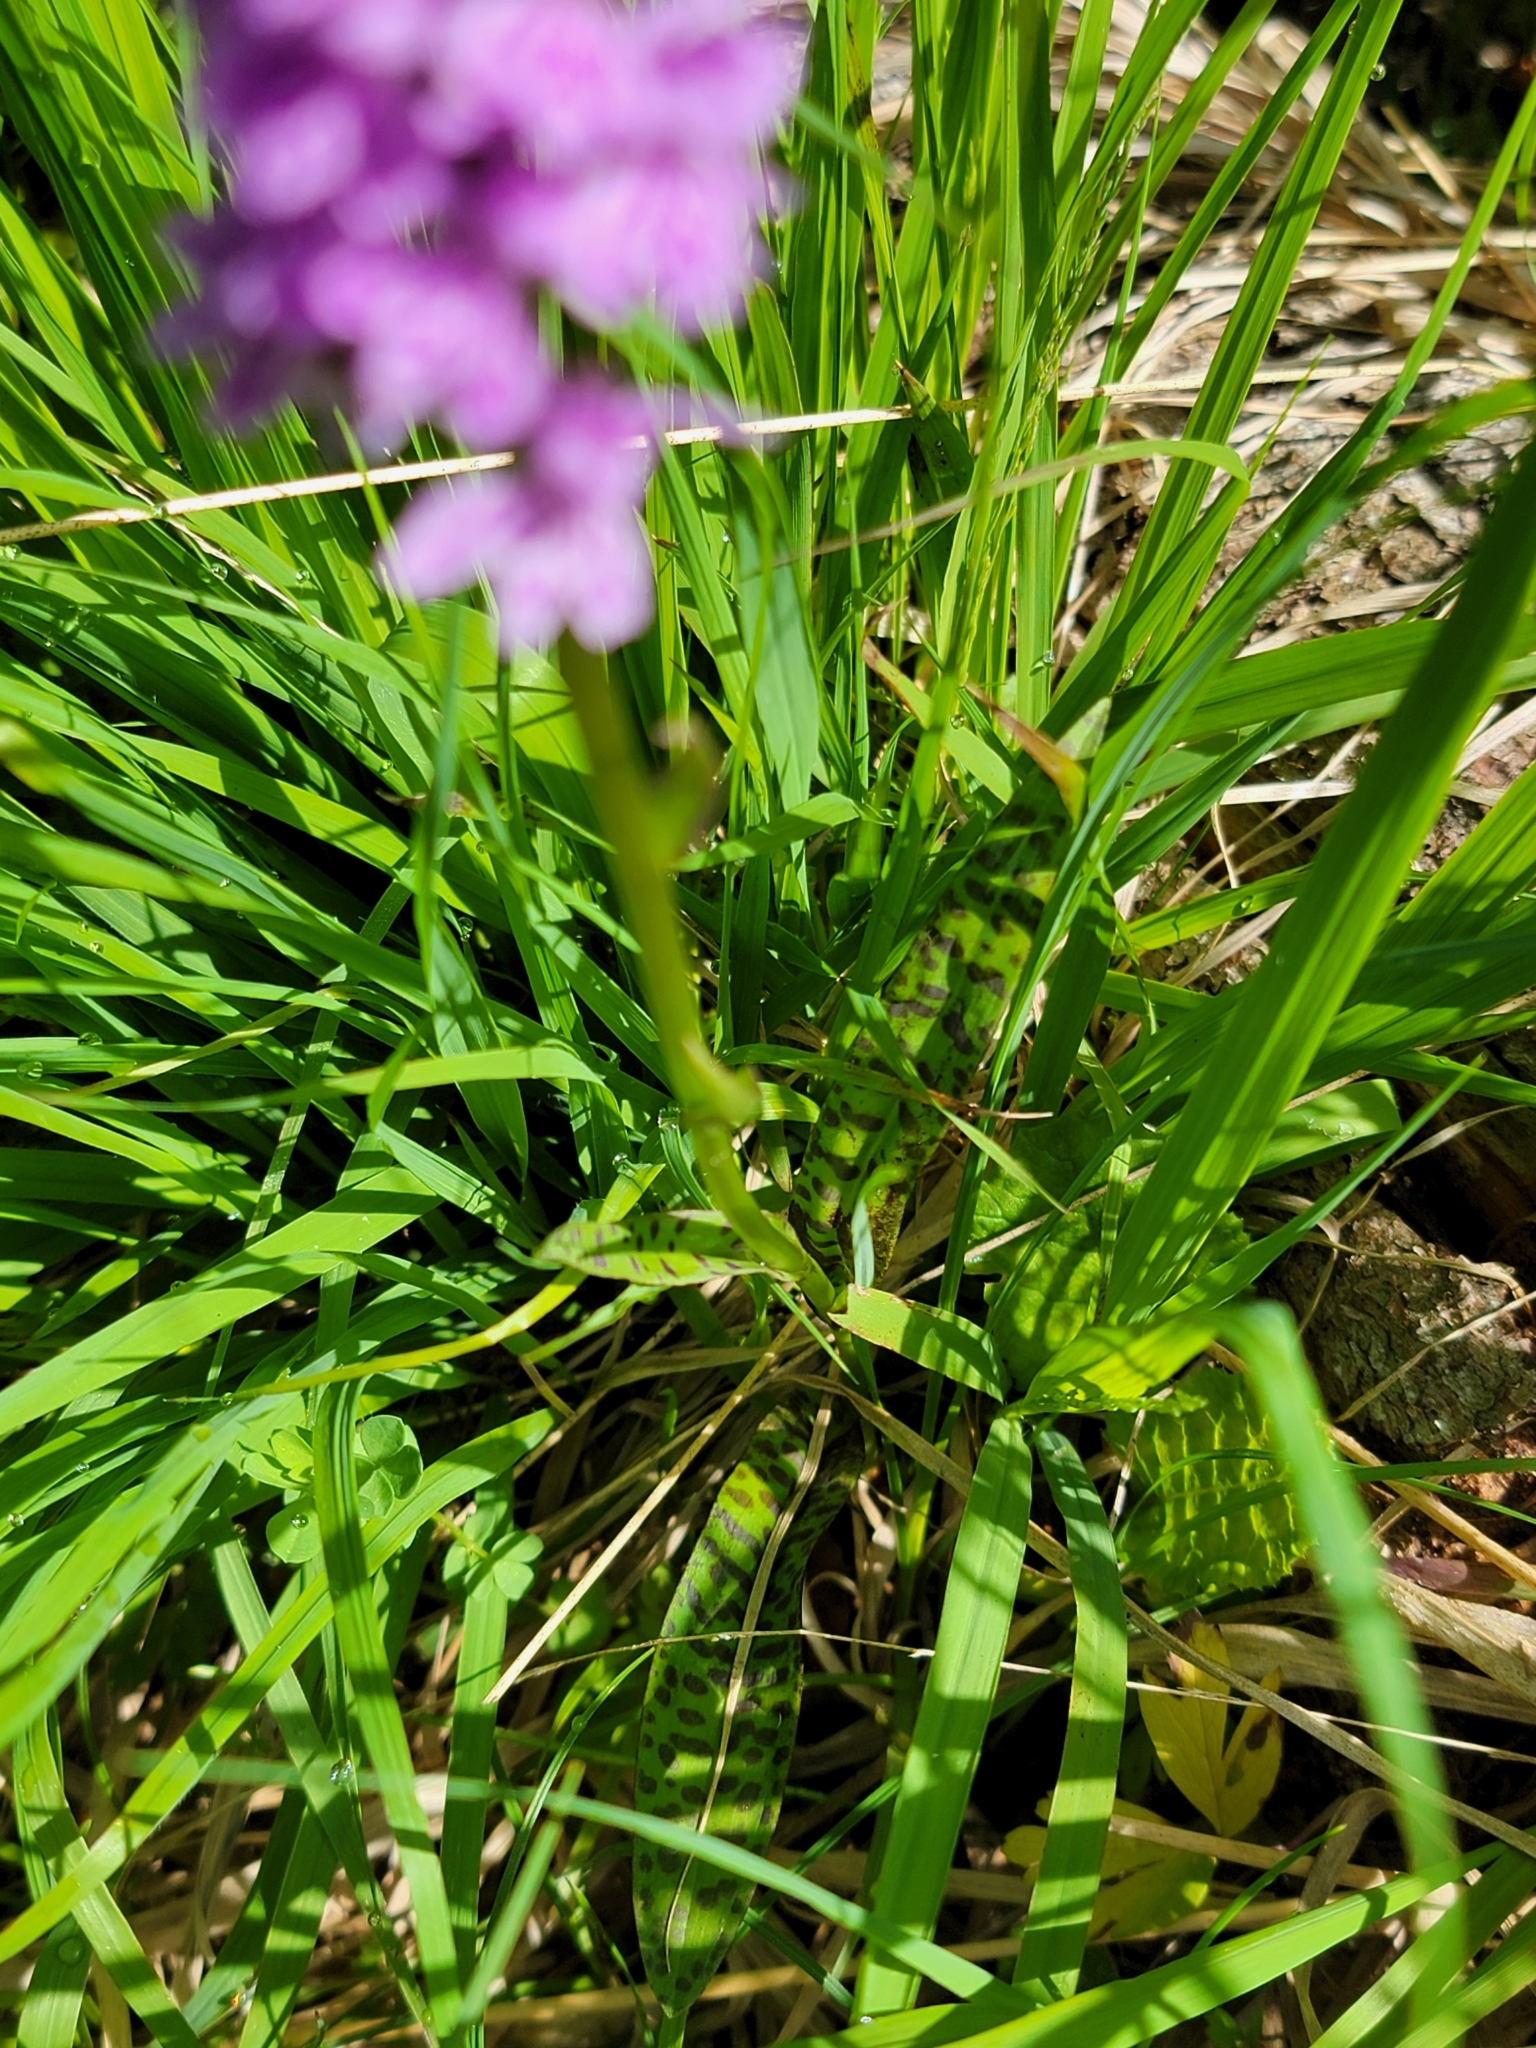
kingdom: Plantae
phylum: Tracheophyta
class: Liliopsida
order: Asparagales
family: Orchidaceae
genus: Dactylorhiza
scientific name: Dactylorhiza maculata
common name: Heath spotted-orchid
